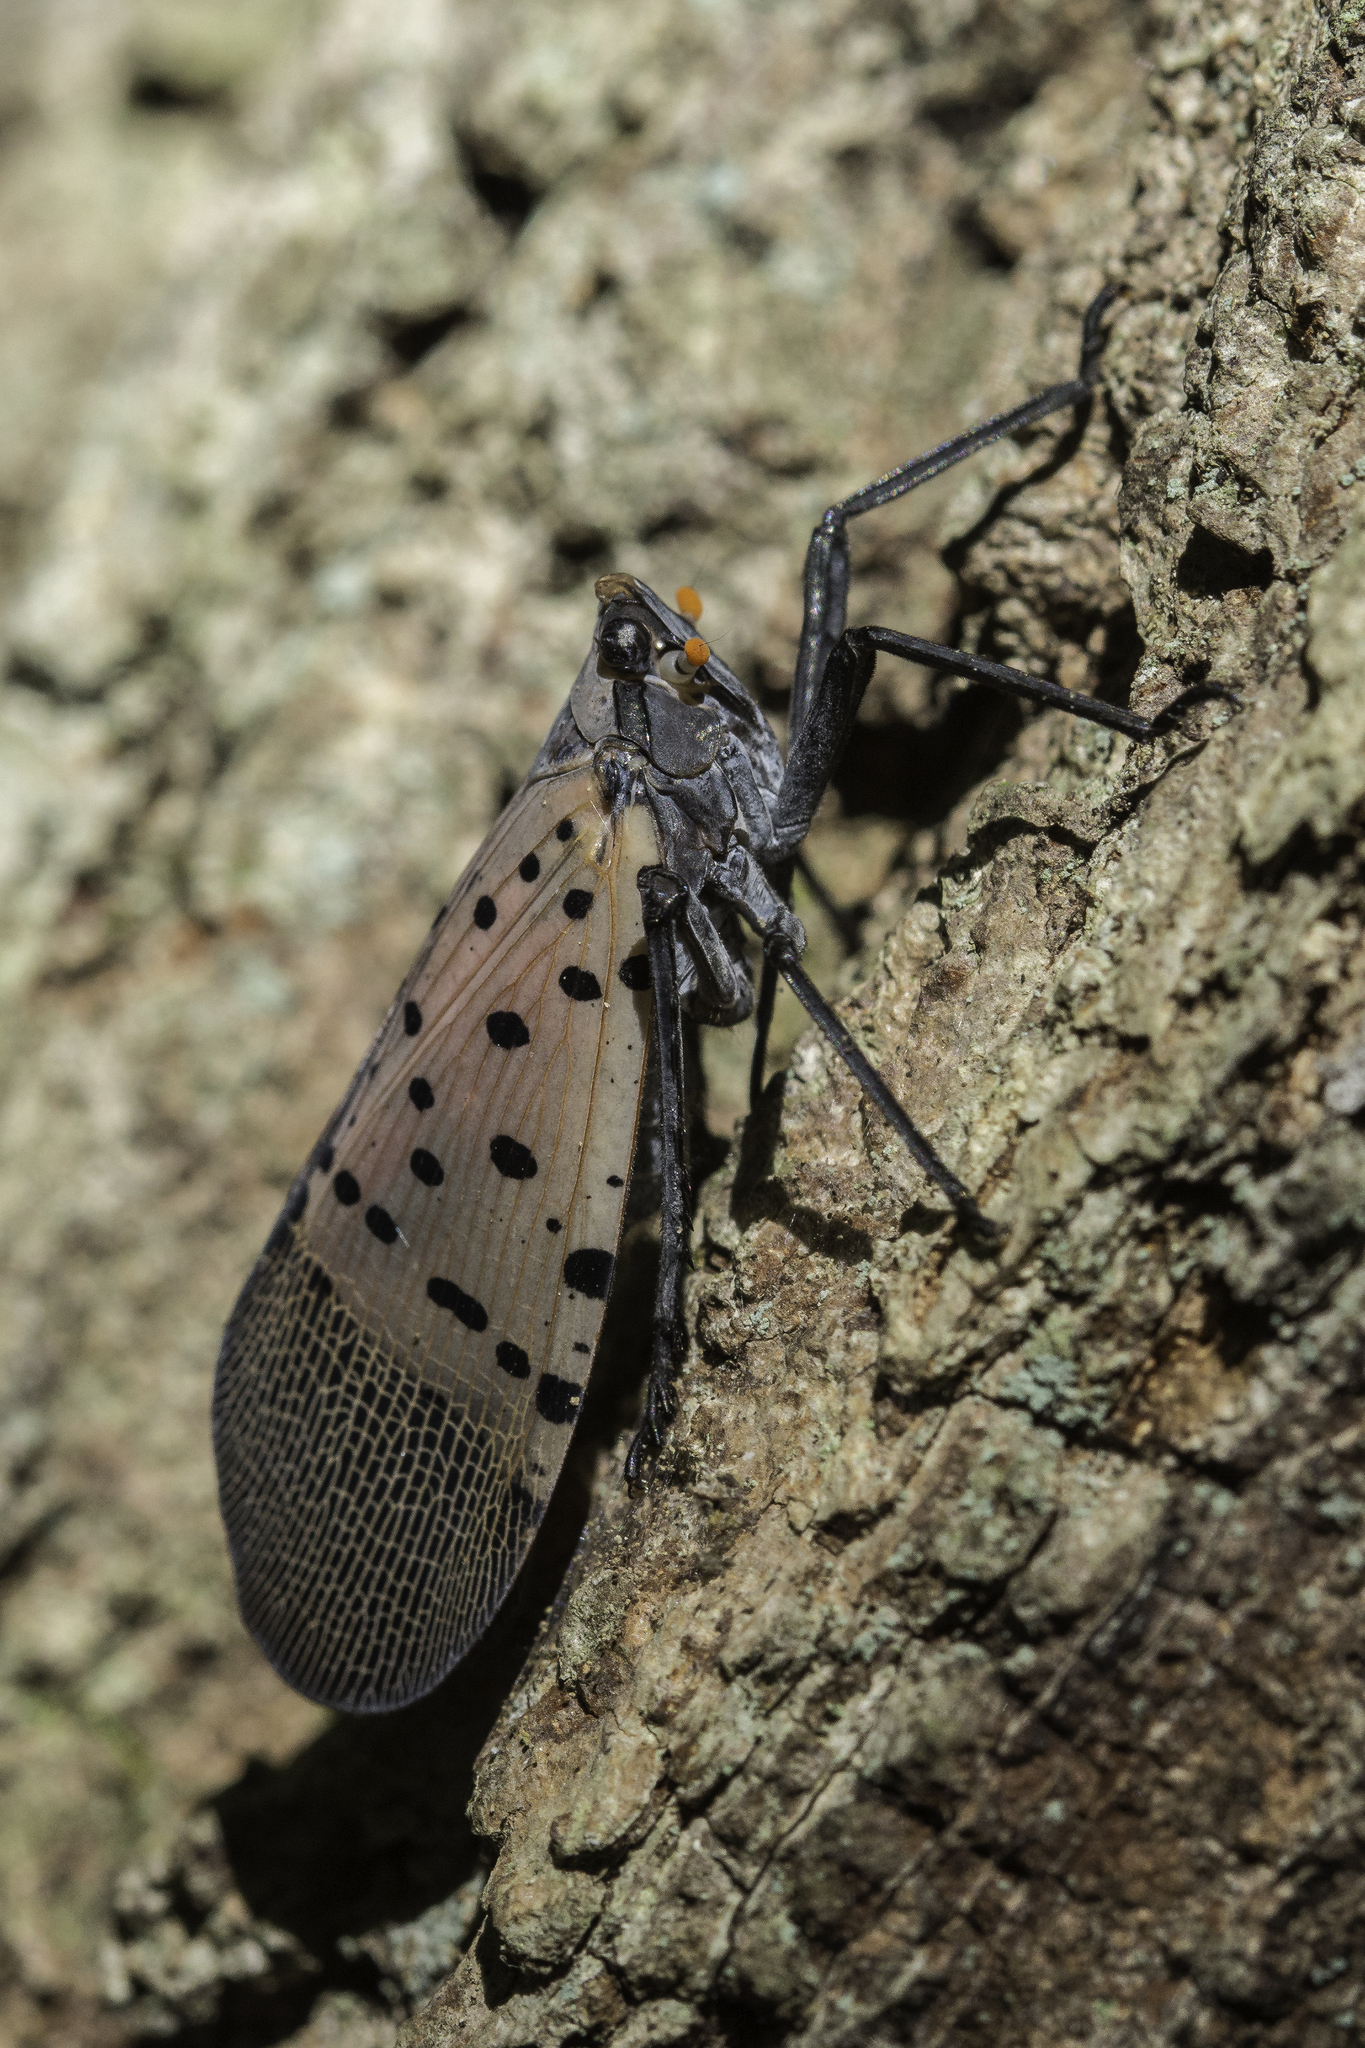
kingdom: Animalia
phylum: Arthropoda
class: Insecta
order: Hemiptera
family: Fulgoridae
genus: Lycorma
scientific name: Lycorma delicatula
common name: Spotted lanternfly
